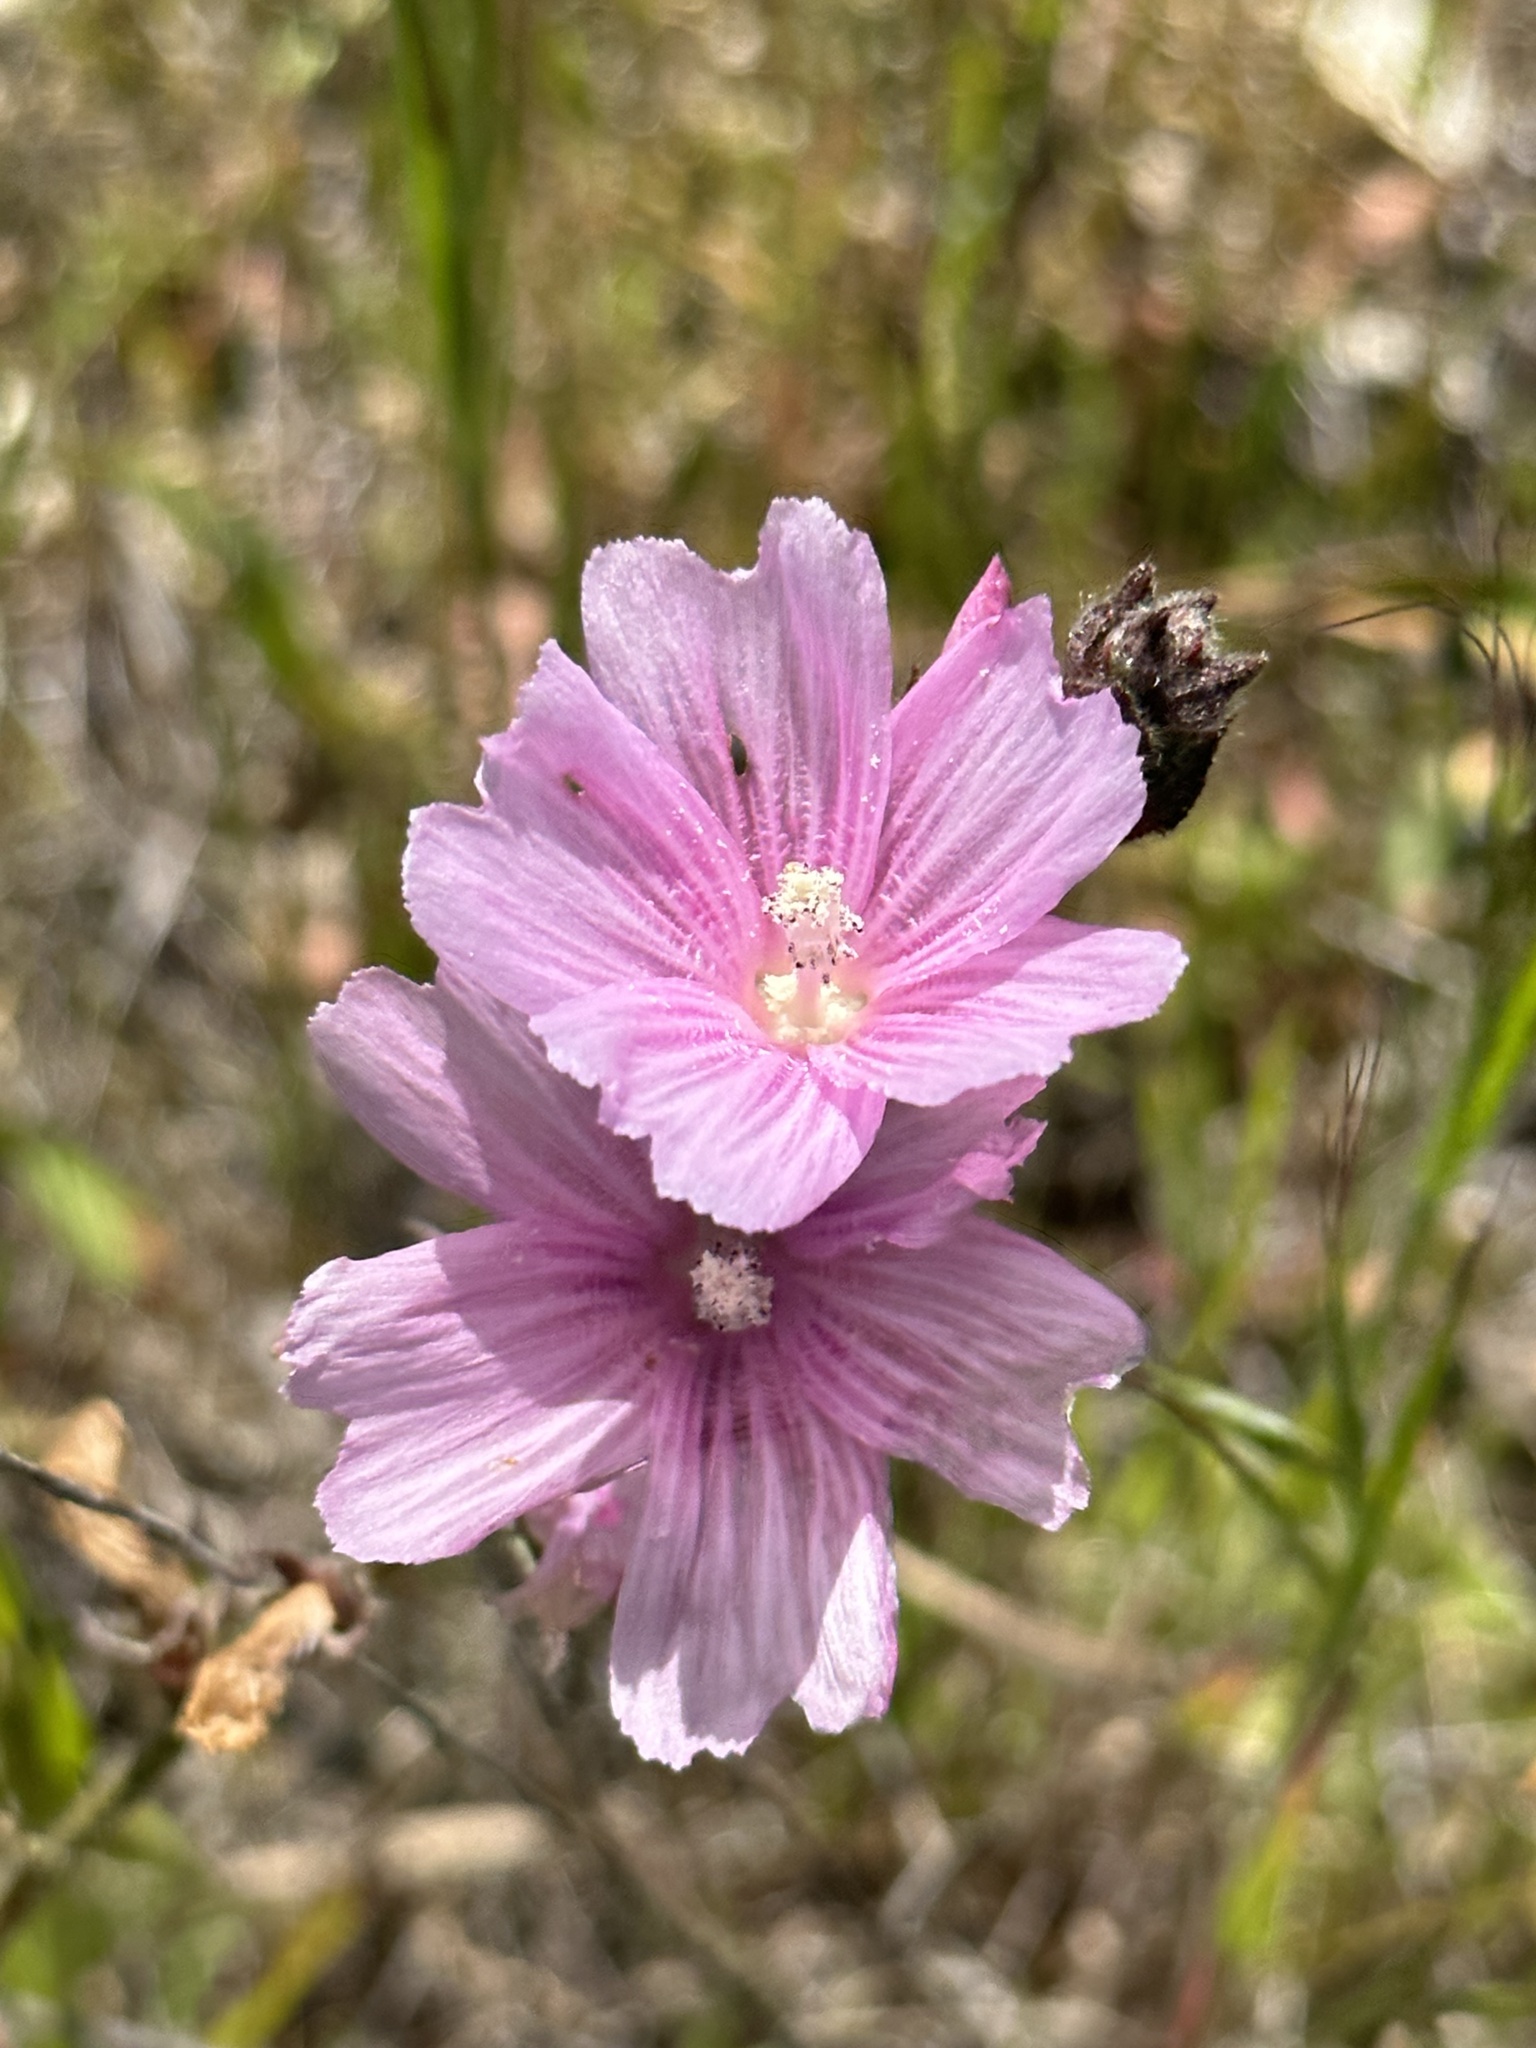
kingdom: Plantae
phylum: Tracheophyta
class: Magnoliopsida
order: Malvales
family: Malvaceae
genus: Sidalcea
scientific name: Sidalcea malviflora
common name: Greek mallow
